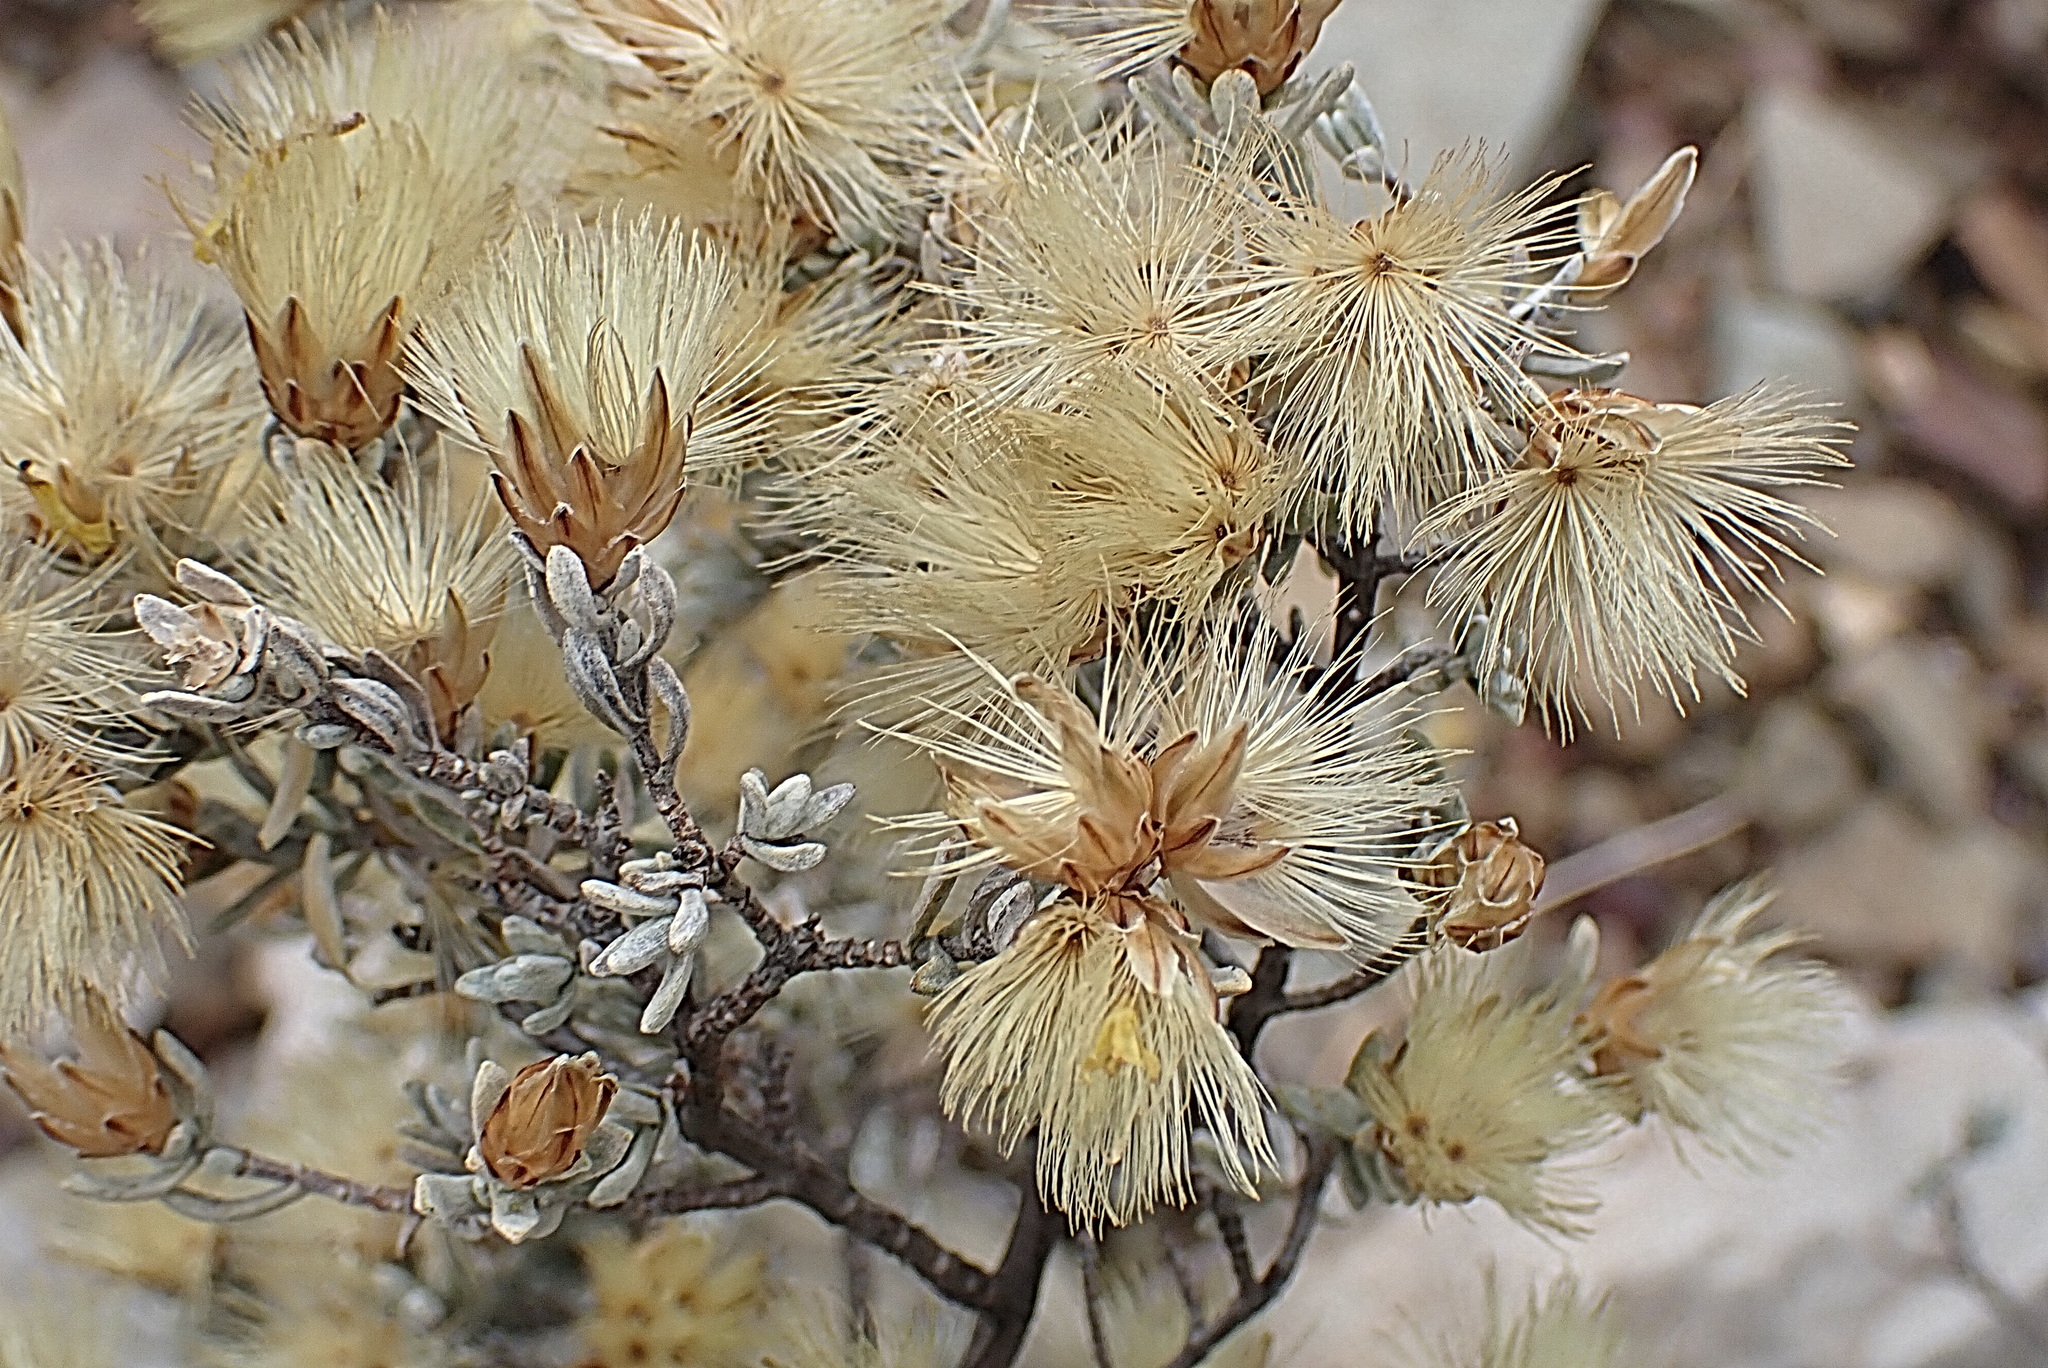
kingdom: Plantae
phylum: Tracheophyta
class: Magnoliopsida
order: Asterales
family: Asteraceae
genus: Pteronia
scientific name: Pteronia incana
